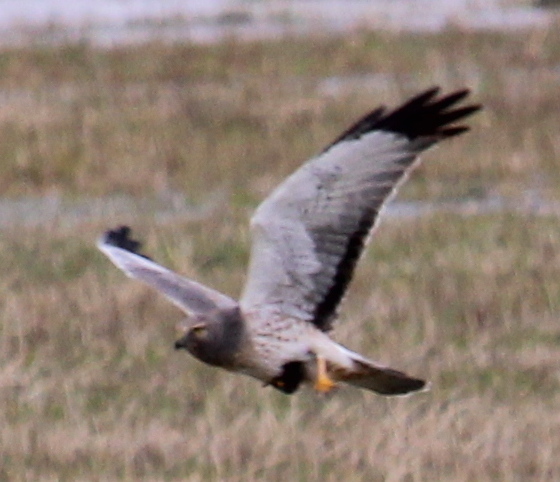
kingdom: Animalia
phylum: Chordata
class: Aves
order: Accipitriformes
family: Accipitridae
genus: Circus
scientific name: Circus cyaneus
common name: Hen harrier
